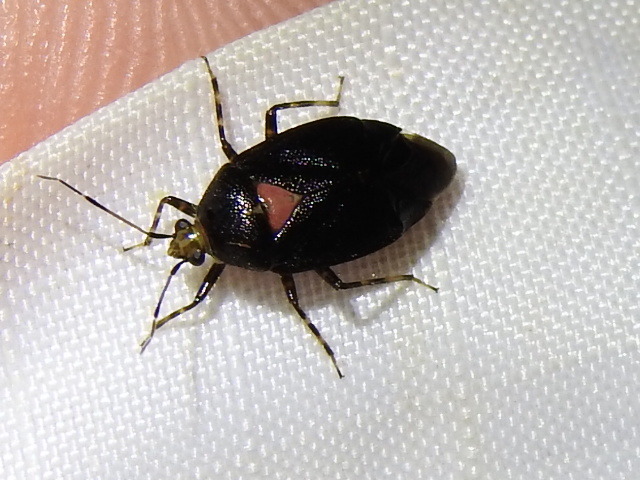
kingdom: Animalia
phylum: Arthropoda
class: Insecta
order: Hemiptera
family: Miridae
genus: Deraeocoris
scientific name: Deraeocoris sayi
